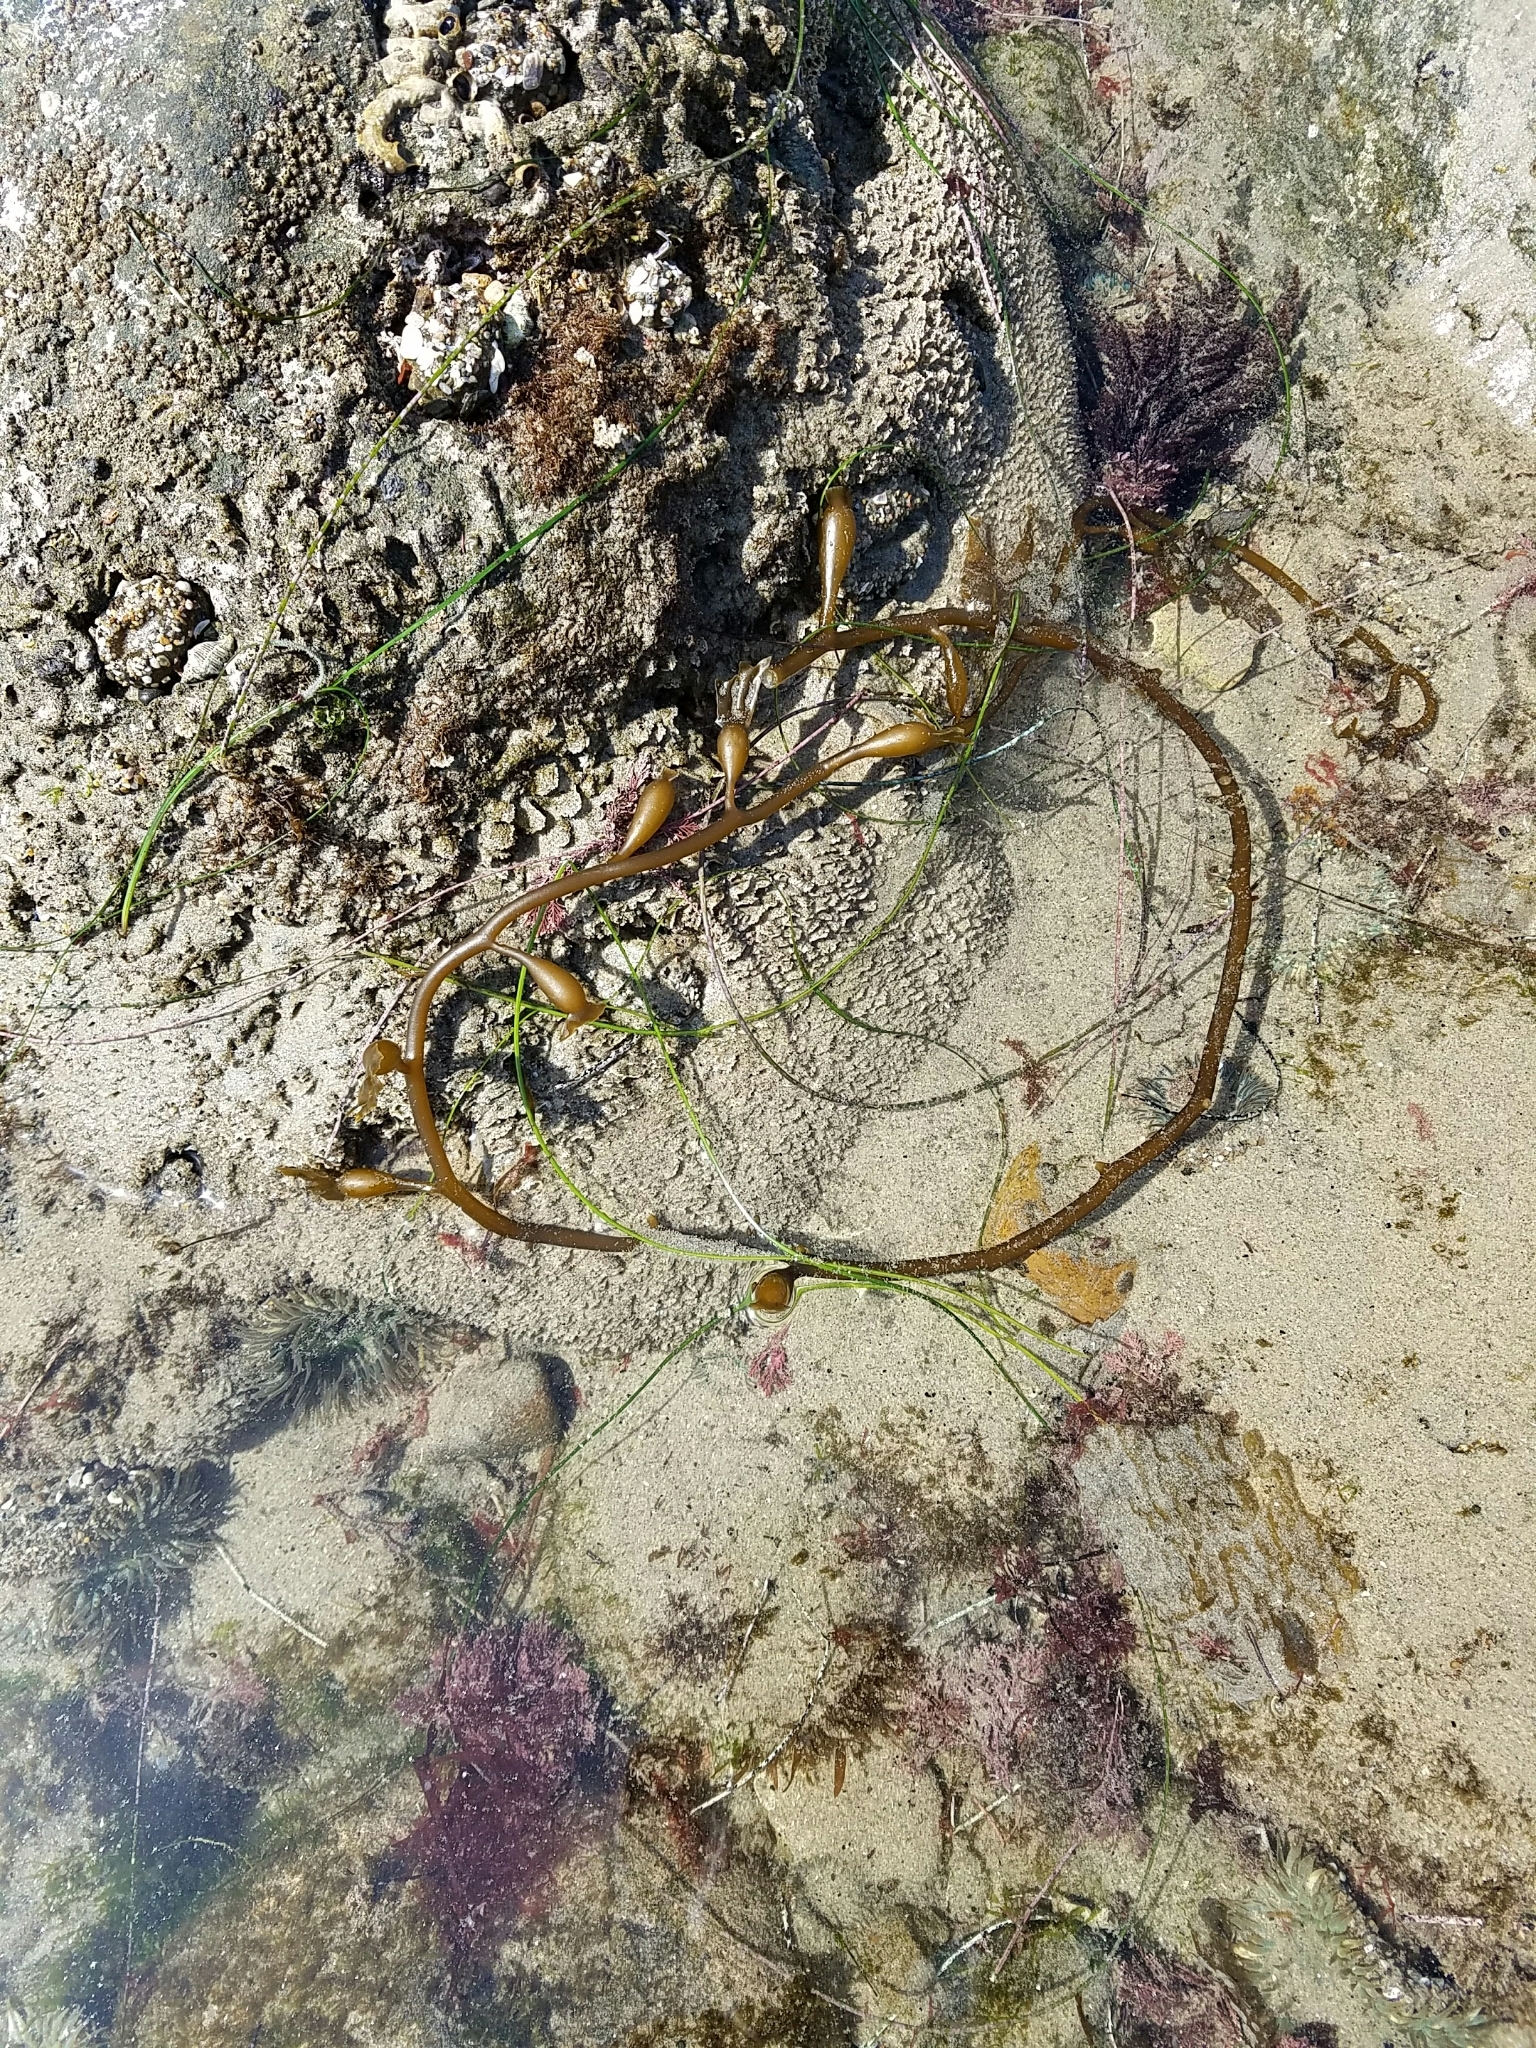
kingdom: Chromista
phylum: Ochrophyta
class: Phaeophyceae
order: Laminariales
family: Laminariaceae
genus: Macrocystis
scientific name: Macrocystis pyrifera
